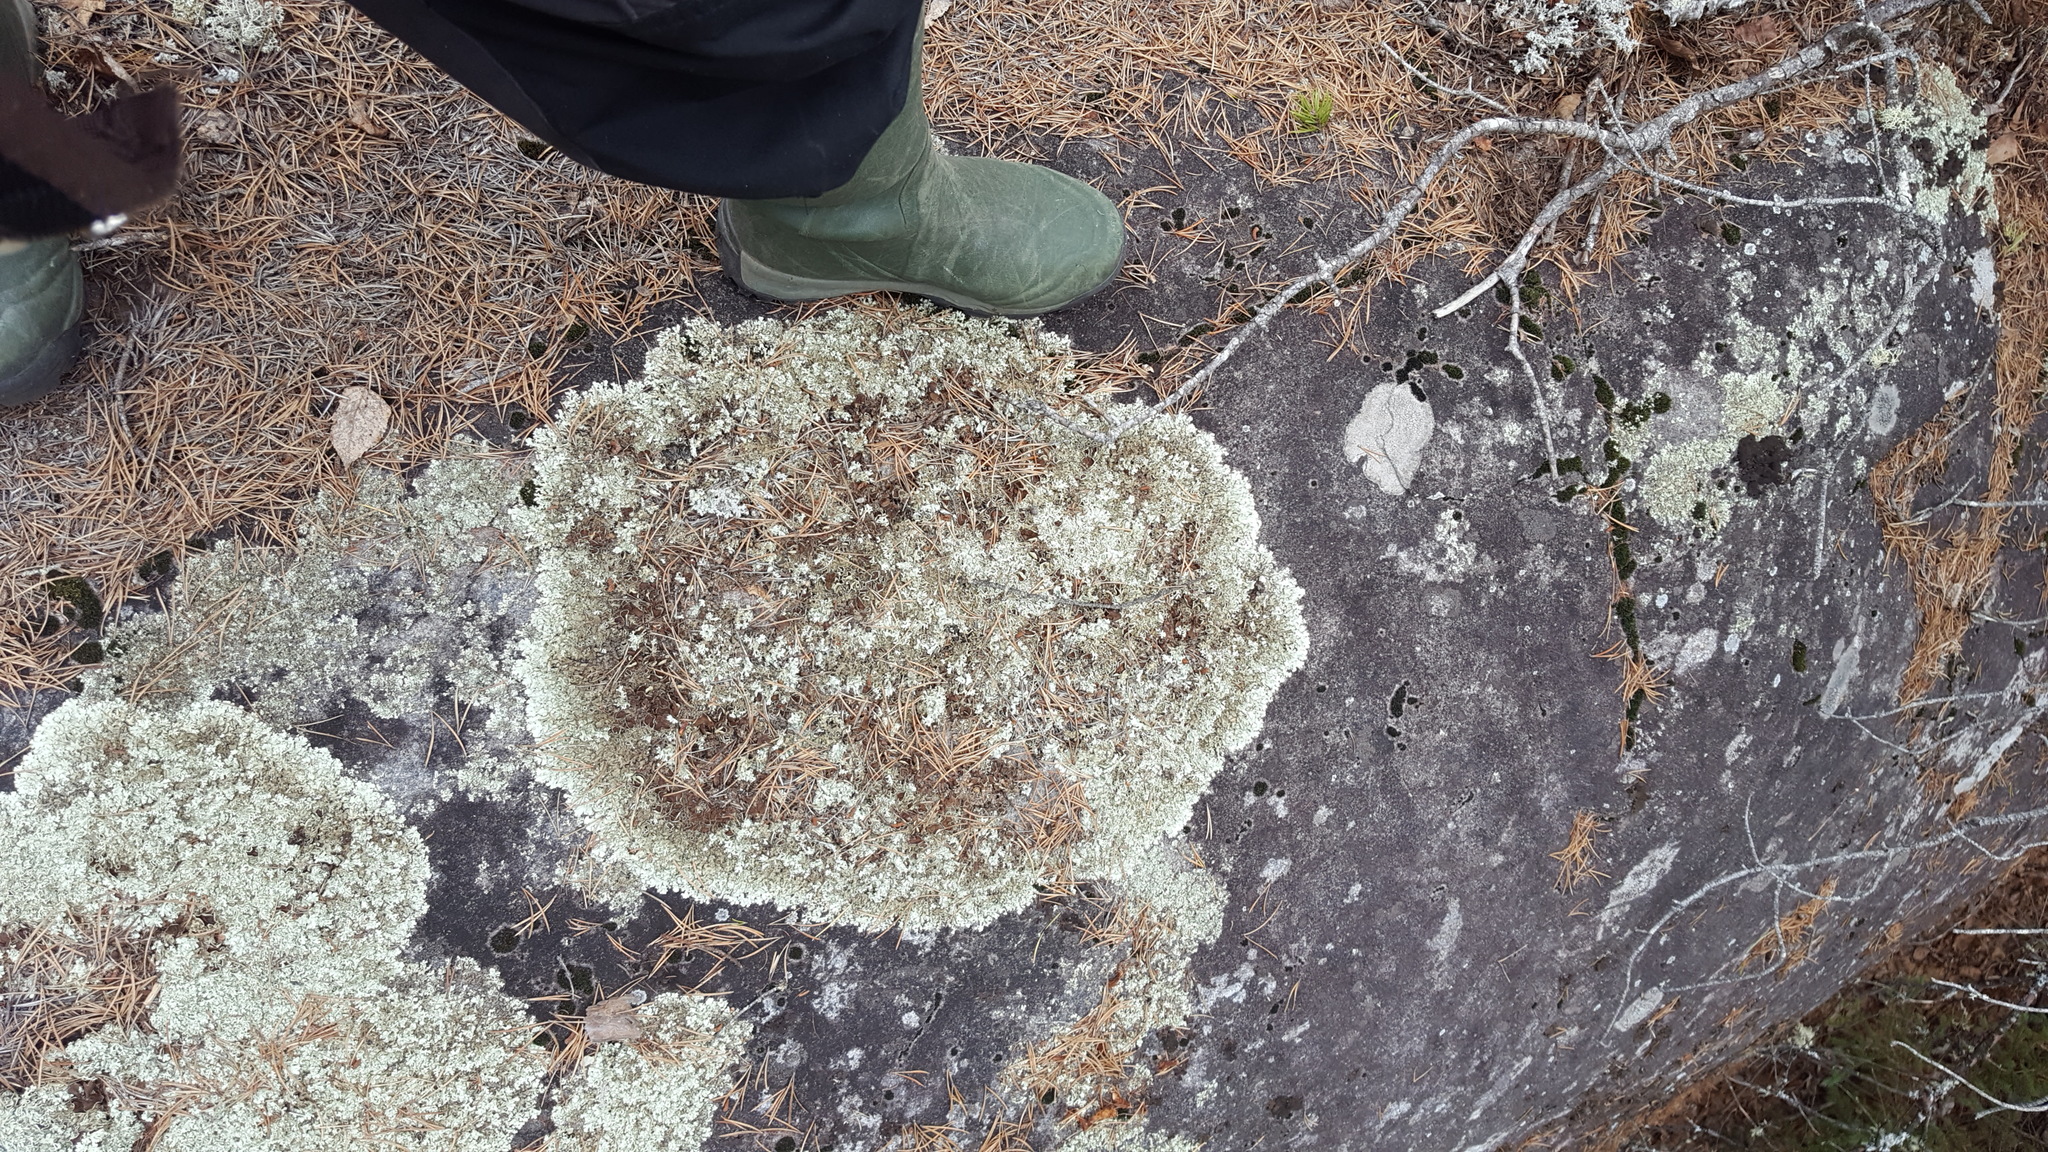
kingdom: Fungi
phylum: Ascomycota
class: Lecanoromycetes
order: Lecanorales
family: Parmeliaceae
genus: Xanthoparmelia
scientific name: Xanthoparmelia cumberlandia
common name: Cumberland rock shield
